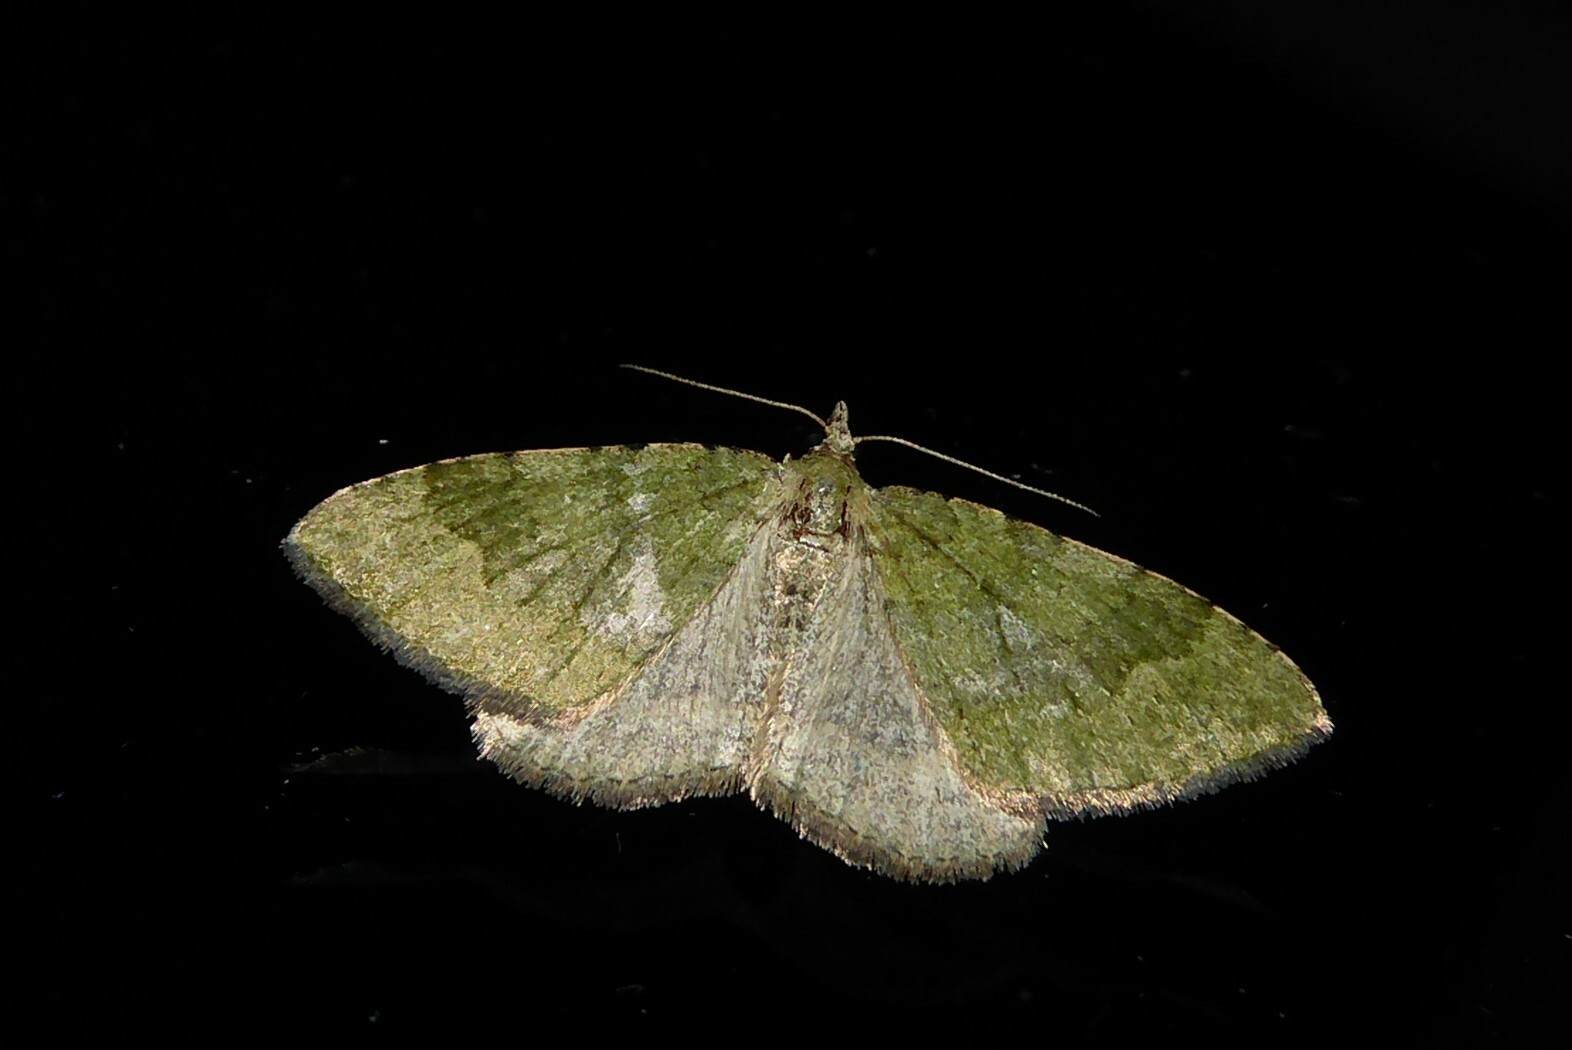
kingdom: Animalia
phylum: Arthropoda
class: Insecta
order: Lepidoptera
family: Geometridae
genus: Epyaxa
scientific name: Epyaxa rosearia
